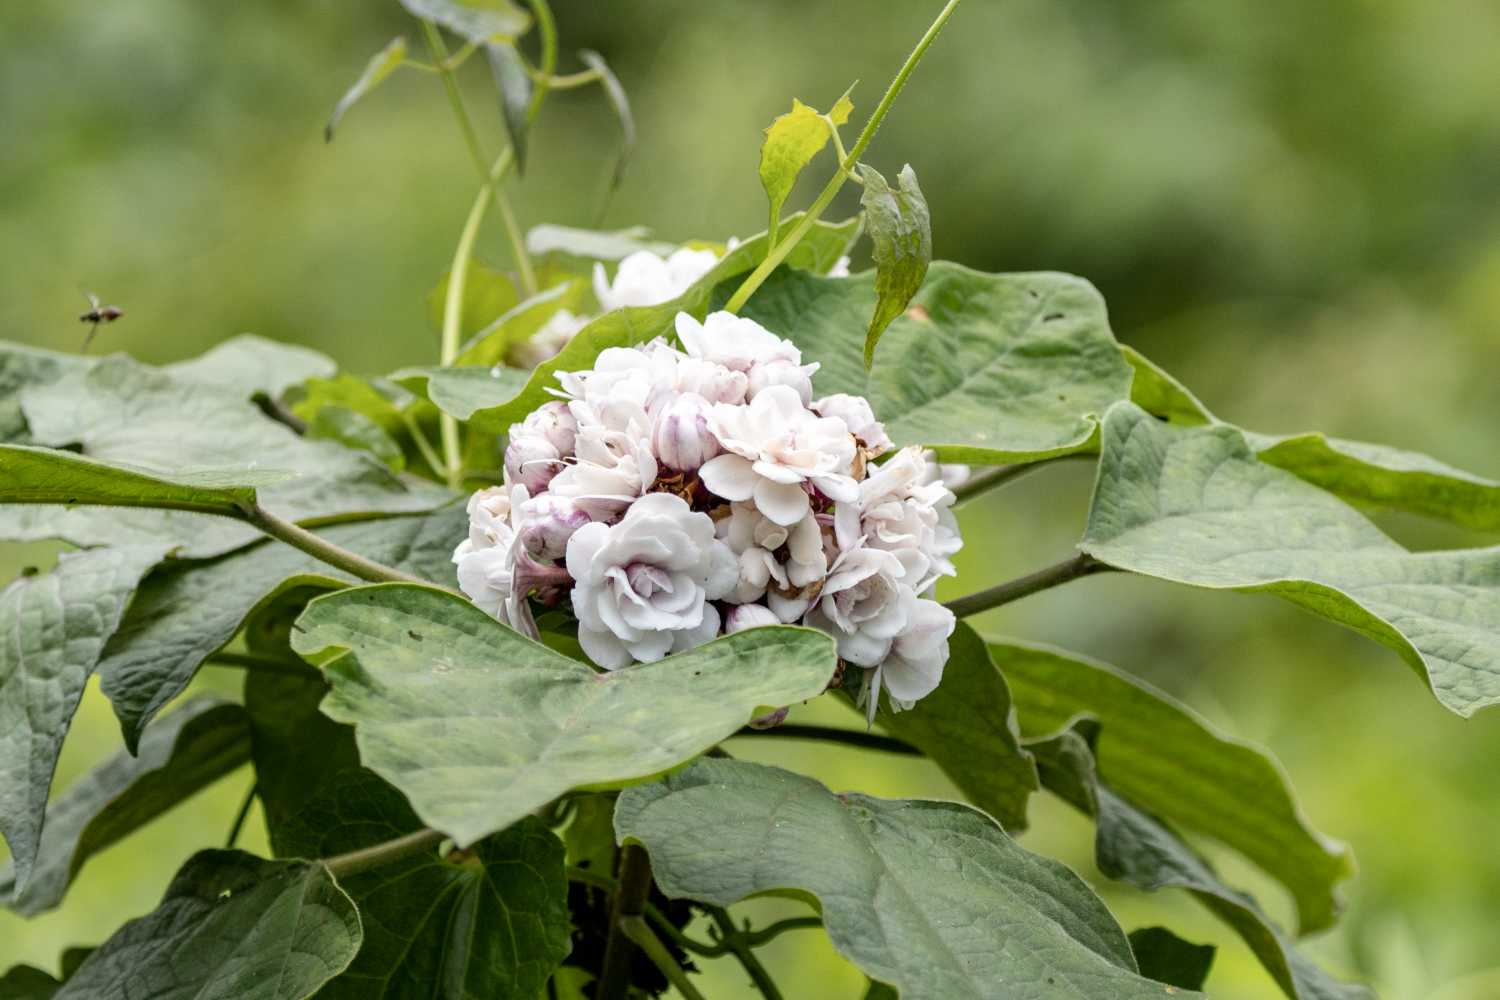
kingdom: Plantae
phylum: Tracheophyta
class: Magnoliopsida
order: Lamiales
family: Lamiaceae
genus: Clerodendrum
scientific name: Clerodendrum chinense
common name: Stickbush
